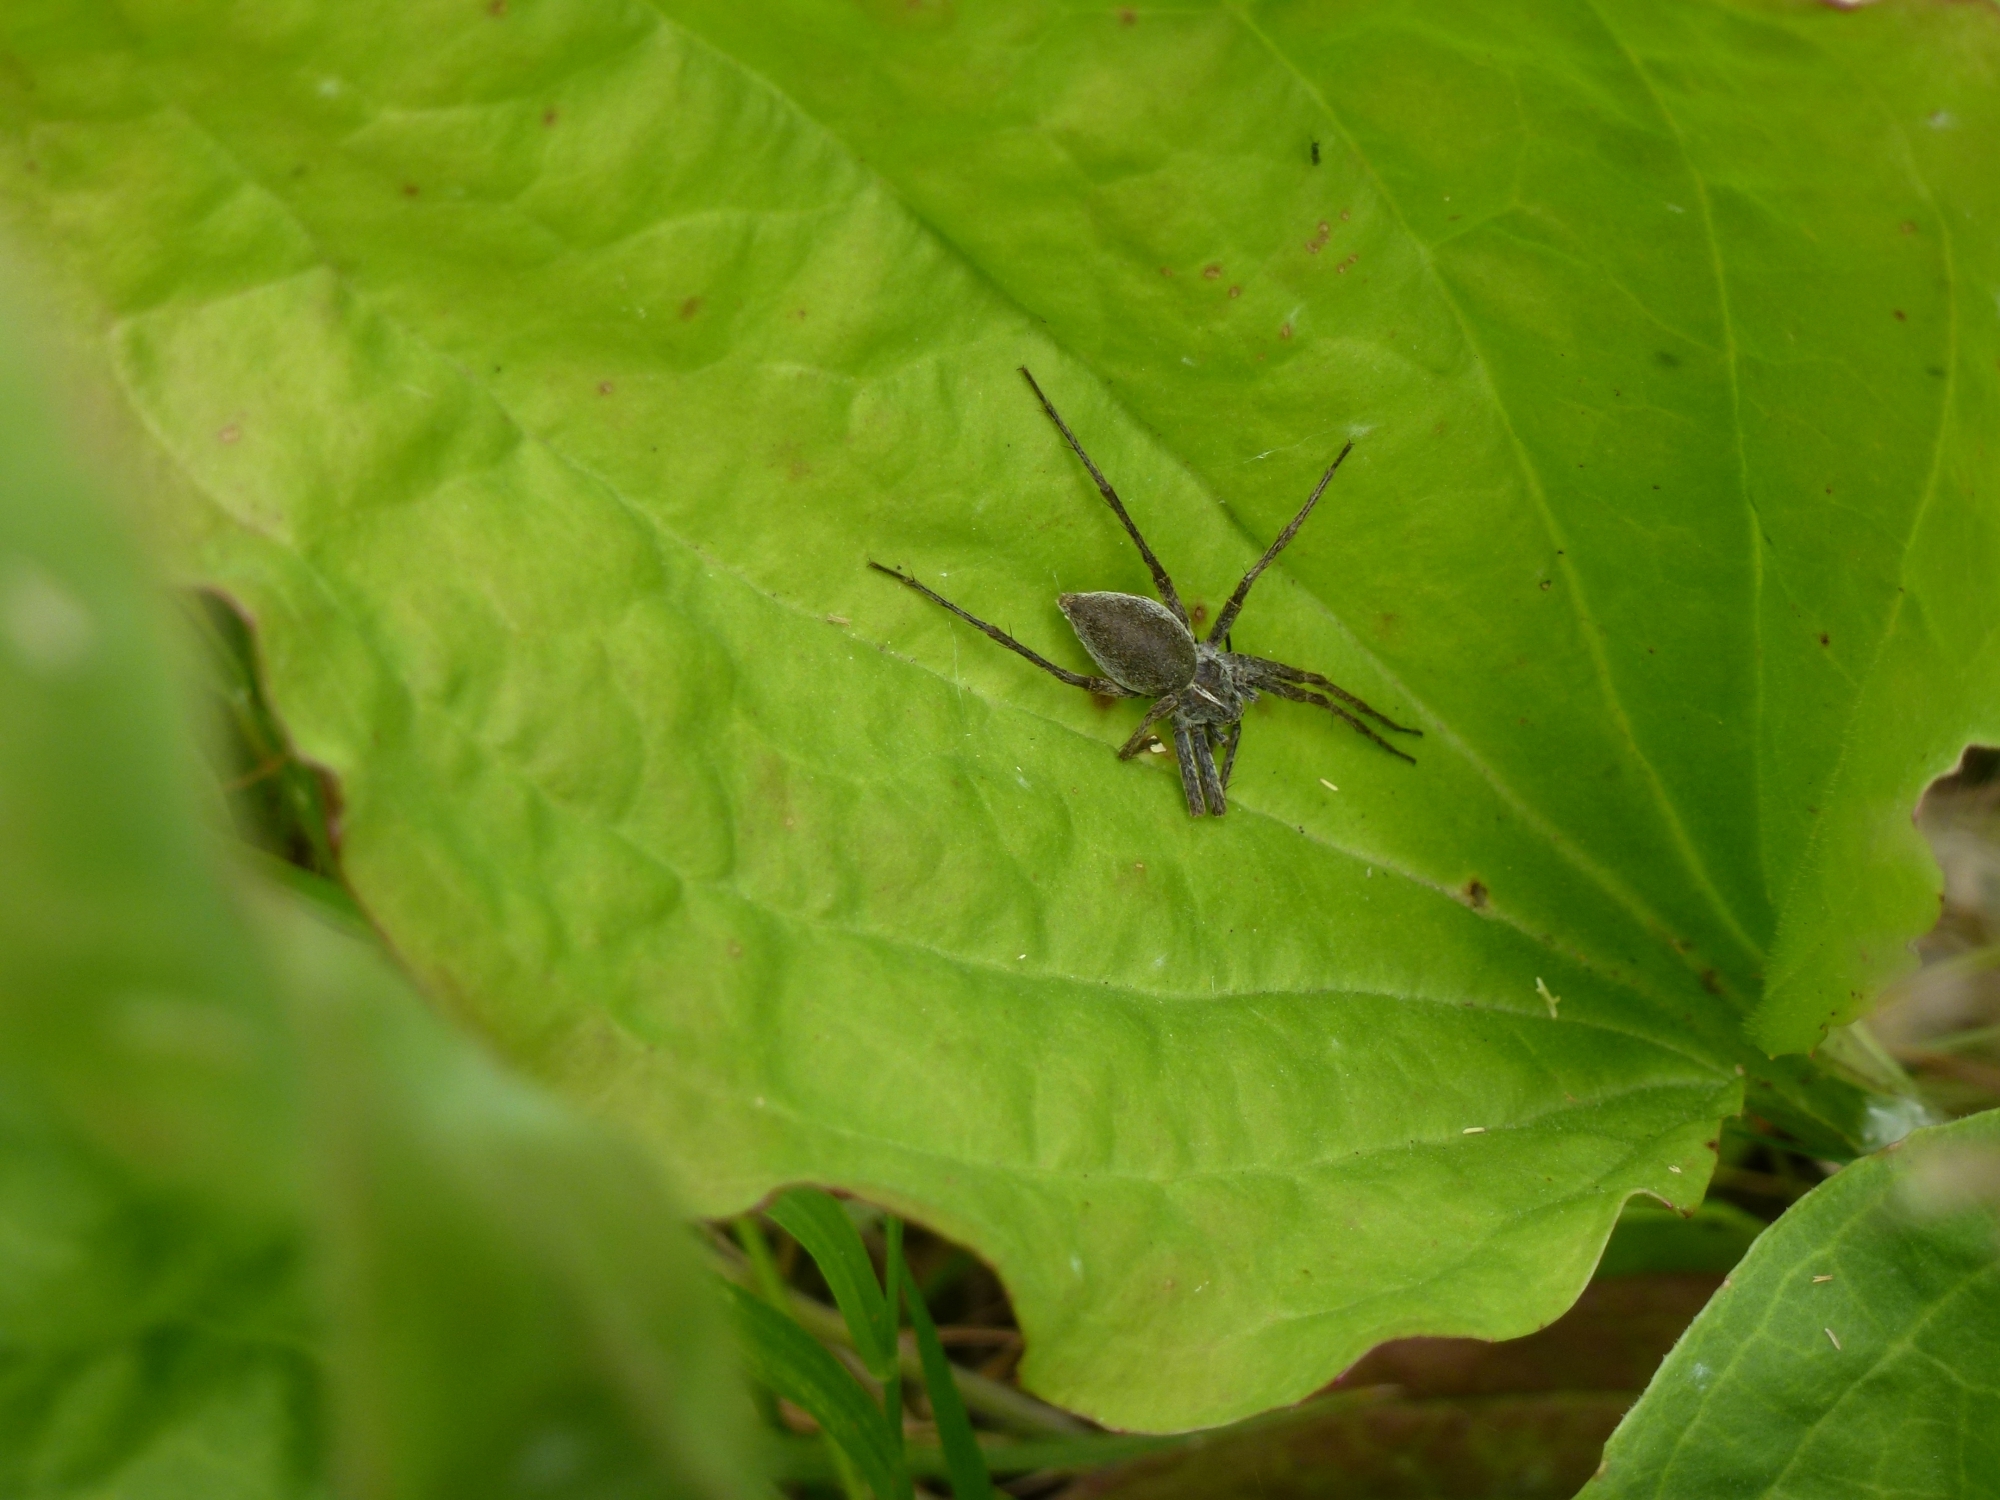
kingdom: Animalia
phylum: Arthropoda
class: Arachnida
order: Araneae
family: Pisauridae
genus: Pisaura
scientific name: Pisaura mirabilis
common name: Tent spider
